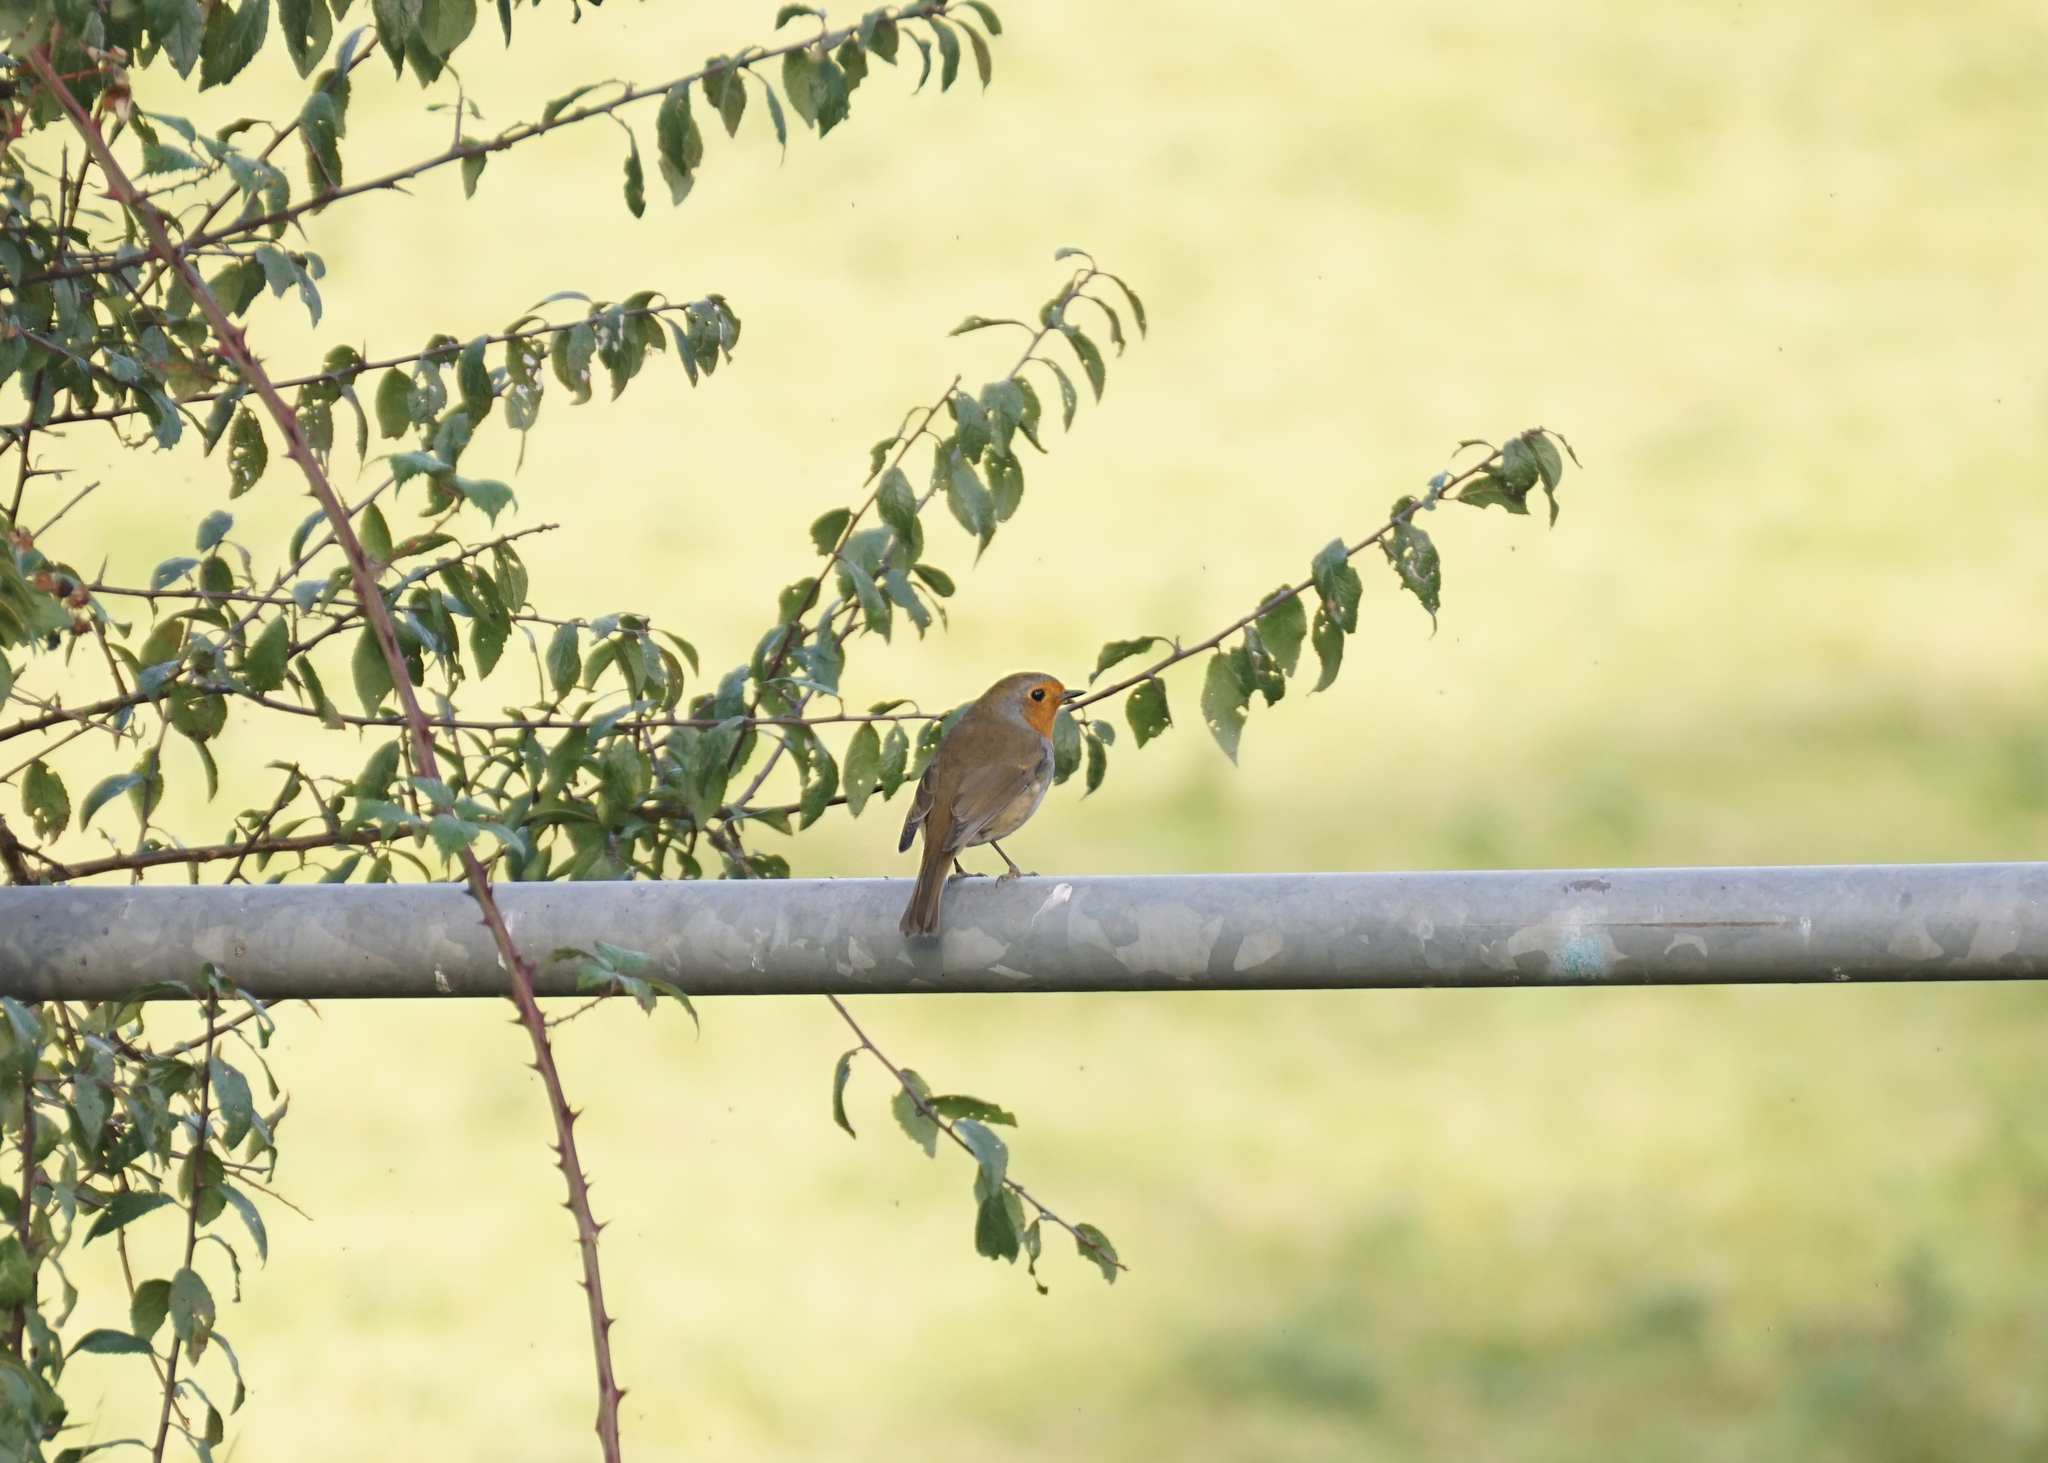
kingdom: Animalia
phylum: Chordata
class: Aves
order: Passeriformes
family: Muscicapidae
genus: Erithacus
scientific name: Erithacus rubecula
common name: European robin
